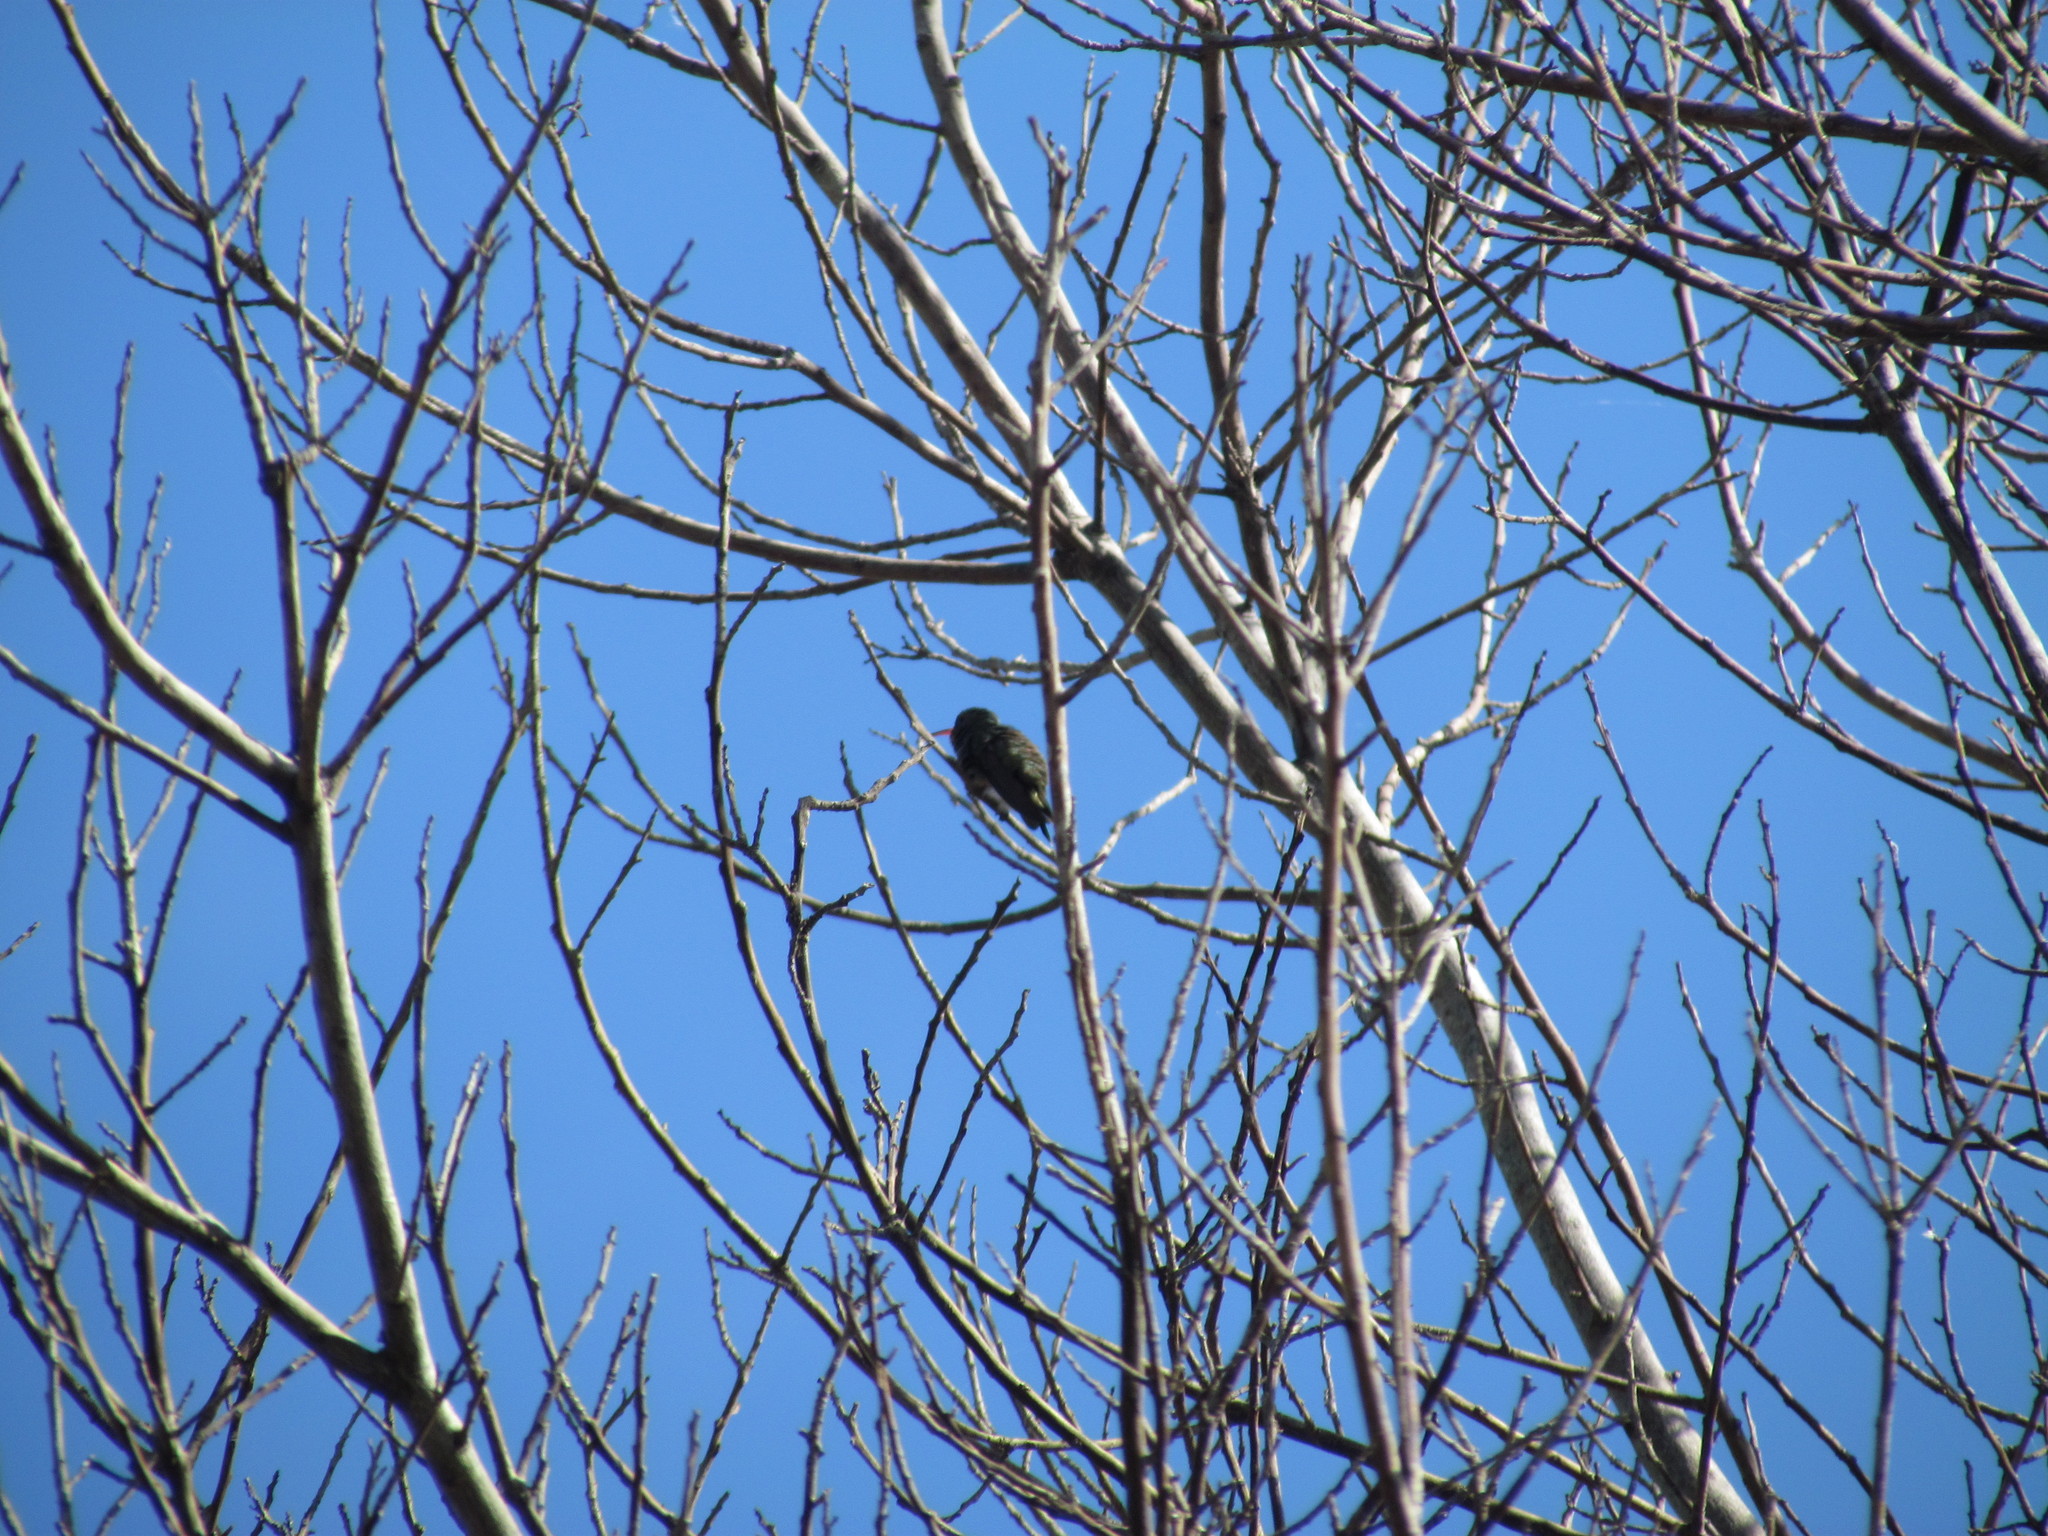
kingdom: Animalia
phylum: Chordata
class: Aves
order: Apodiformes
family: Trochilidae
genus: Chlorostilbon
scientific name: Chlorostilbon lucidus
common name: Glittering-bellied emerald
